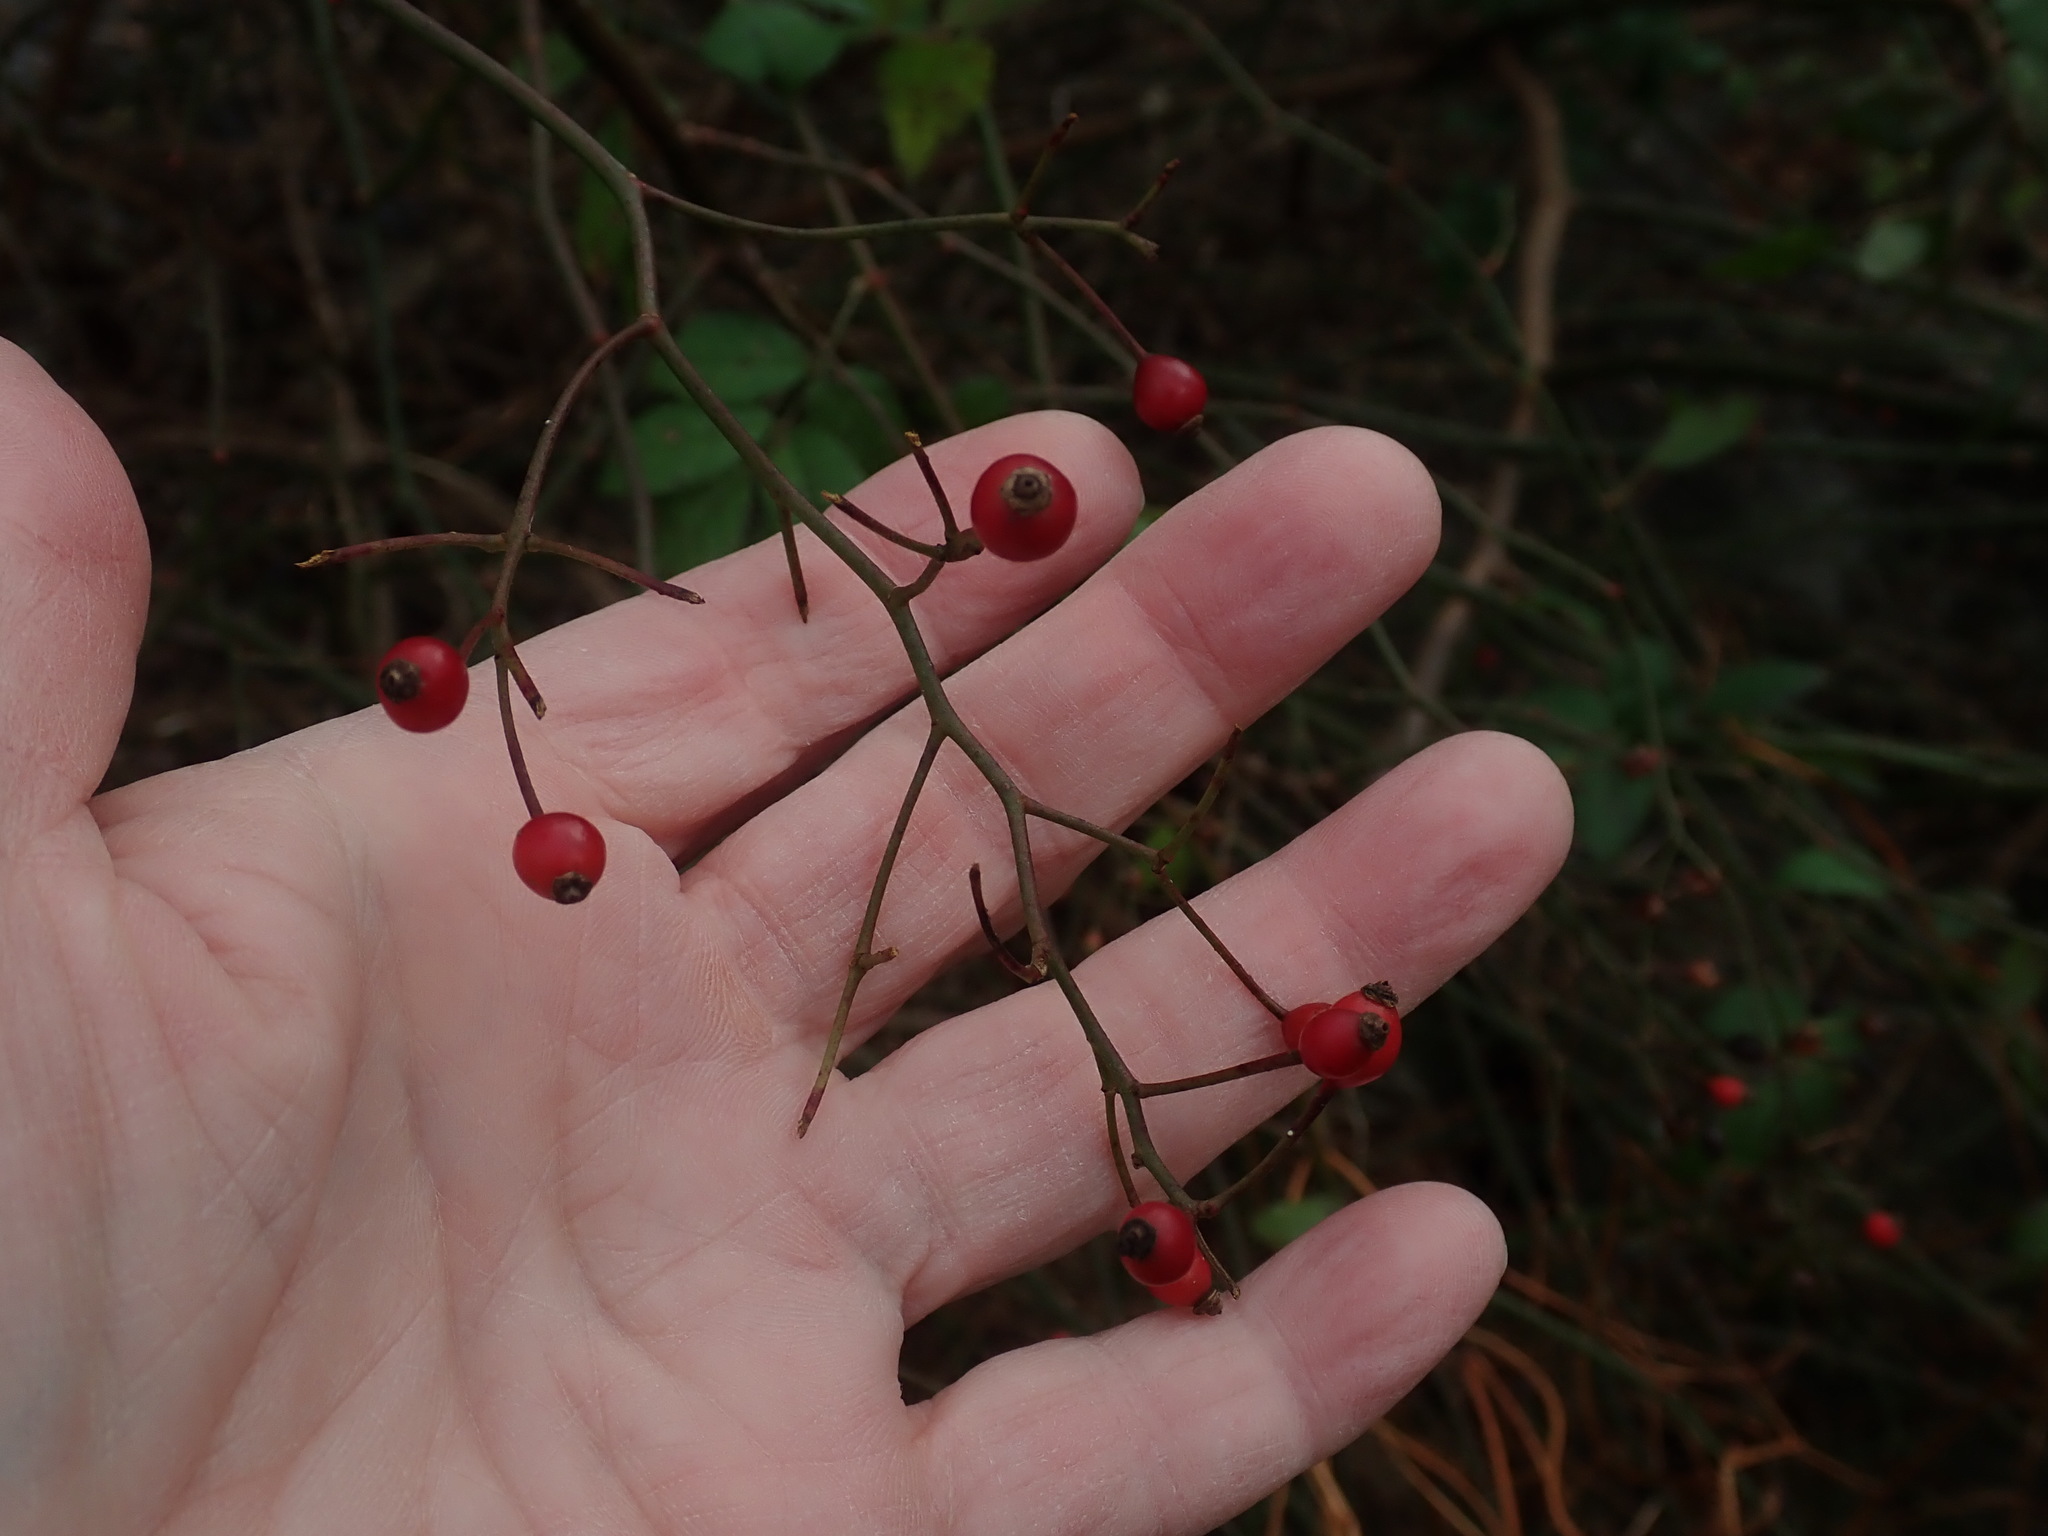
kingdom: Plantae
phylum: Tracheophyta
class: Magnoliopsida
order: Rosales
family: Rosaceae
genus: Rosa
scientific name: Rosa multiflora
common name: Multiflora rose
